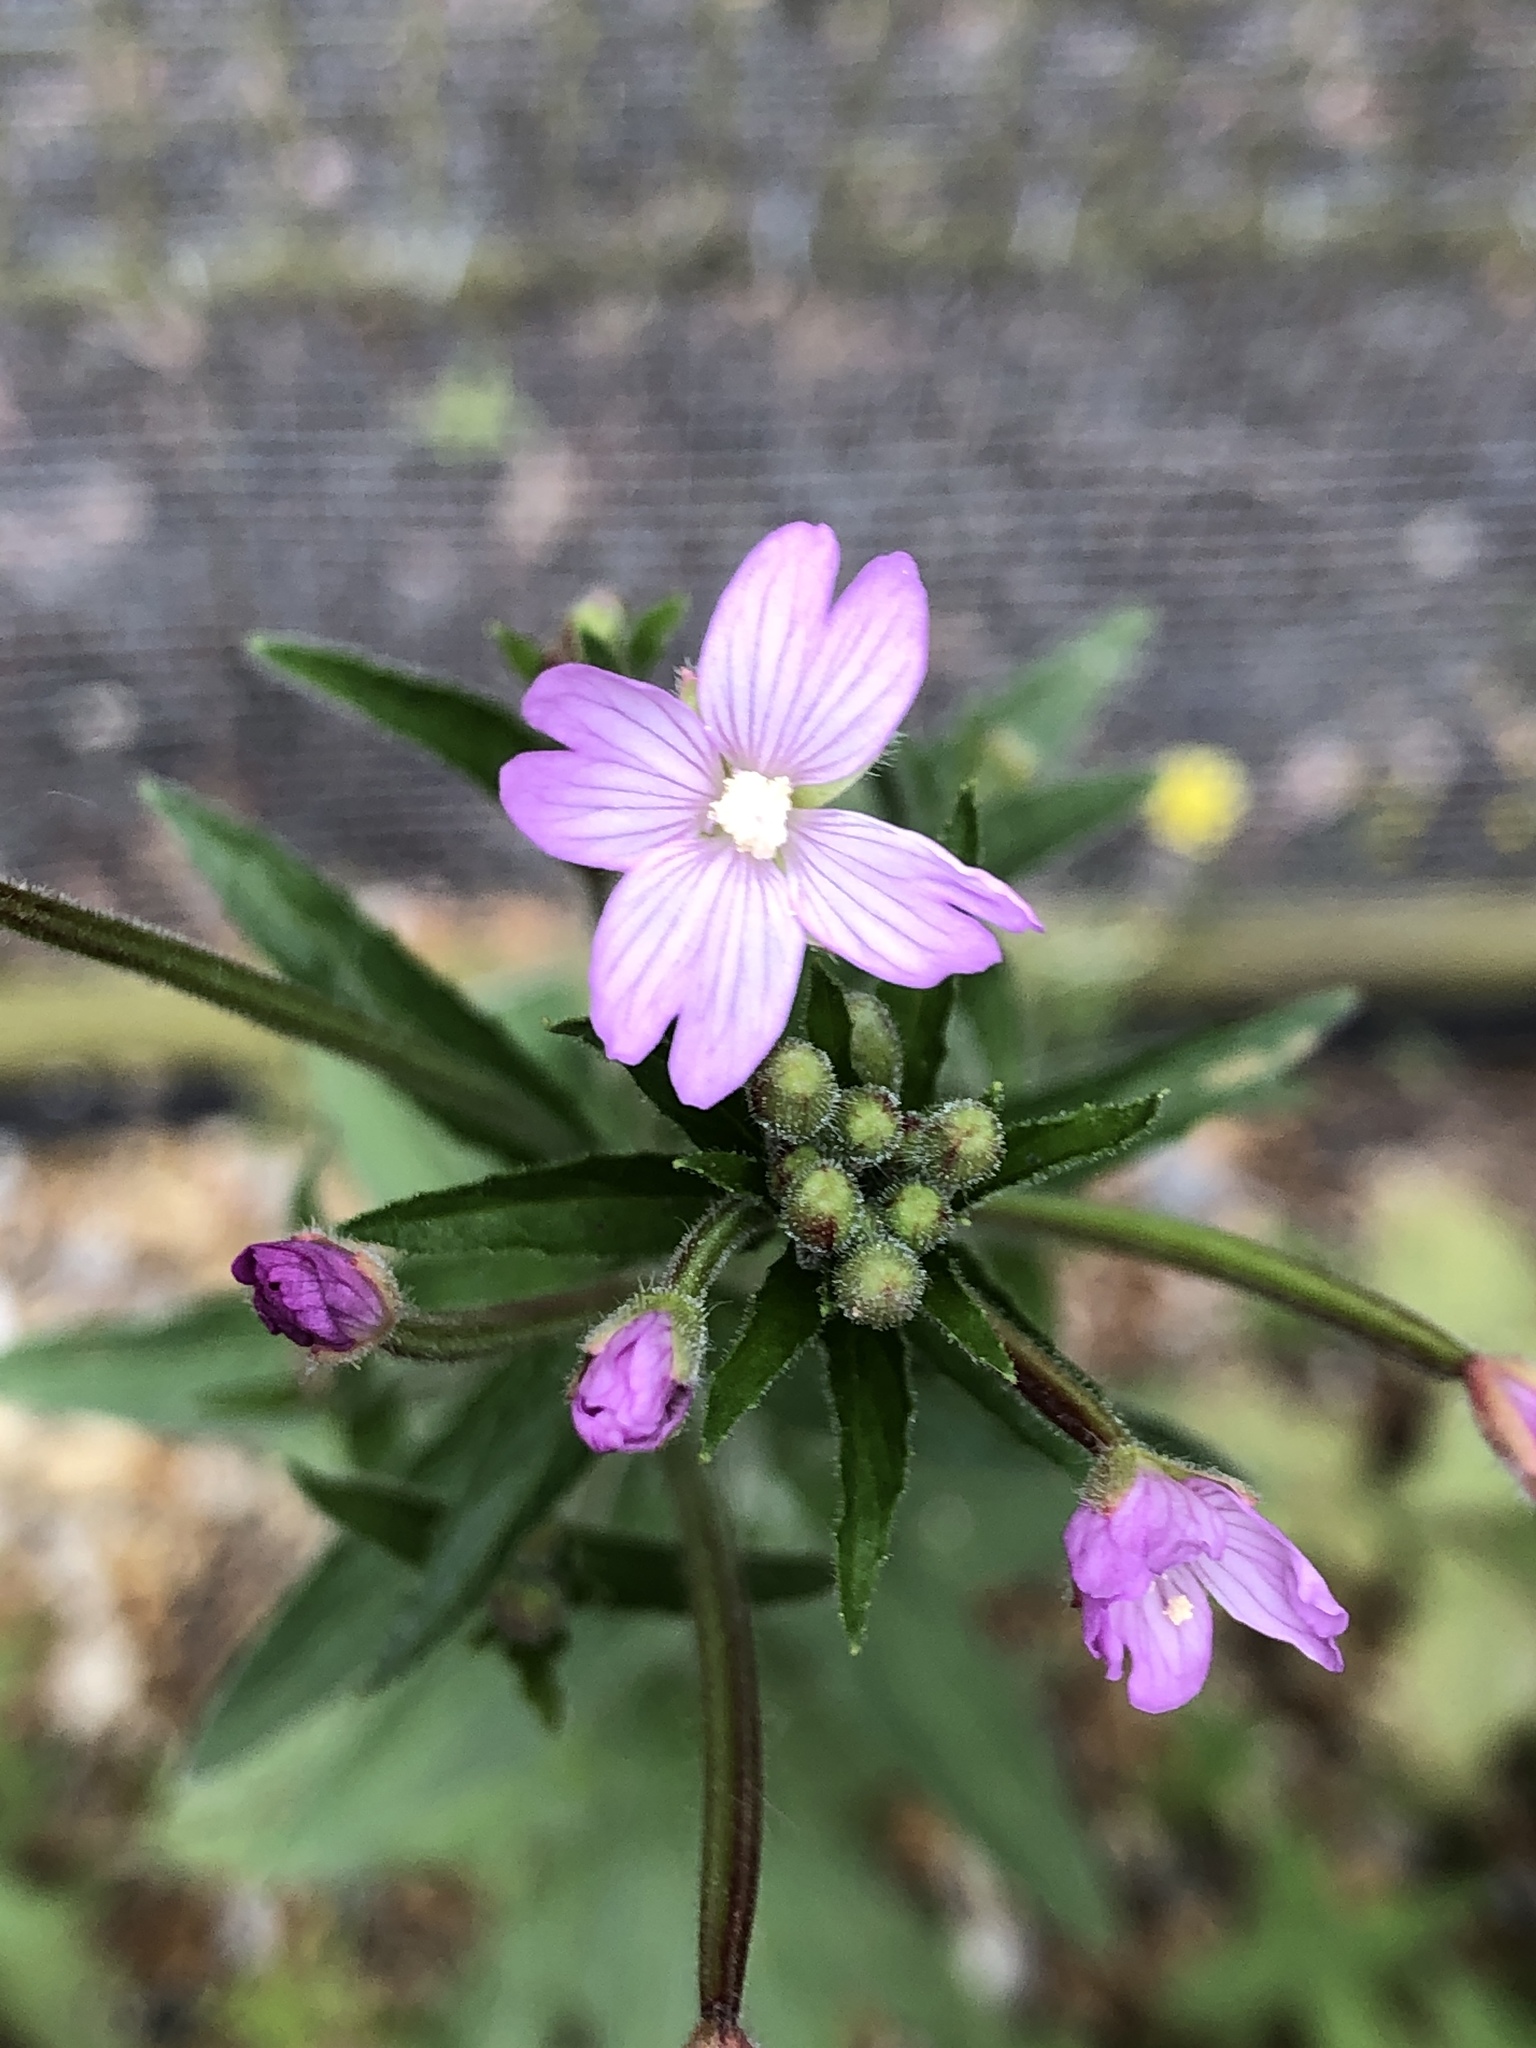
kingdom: Plantae
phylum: Tracheophyta
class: Magnoliopsida
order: Myrtales
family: Onagraceae
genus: Epilobium
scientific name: Epilobium parviflorum
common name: Hoary willowherb
